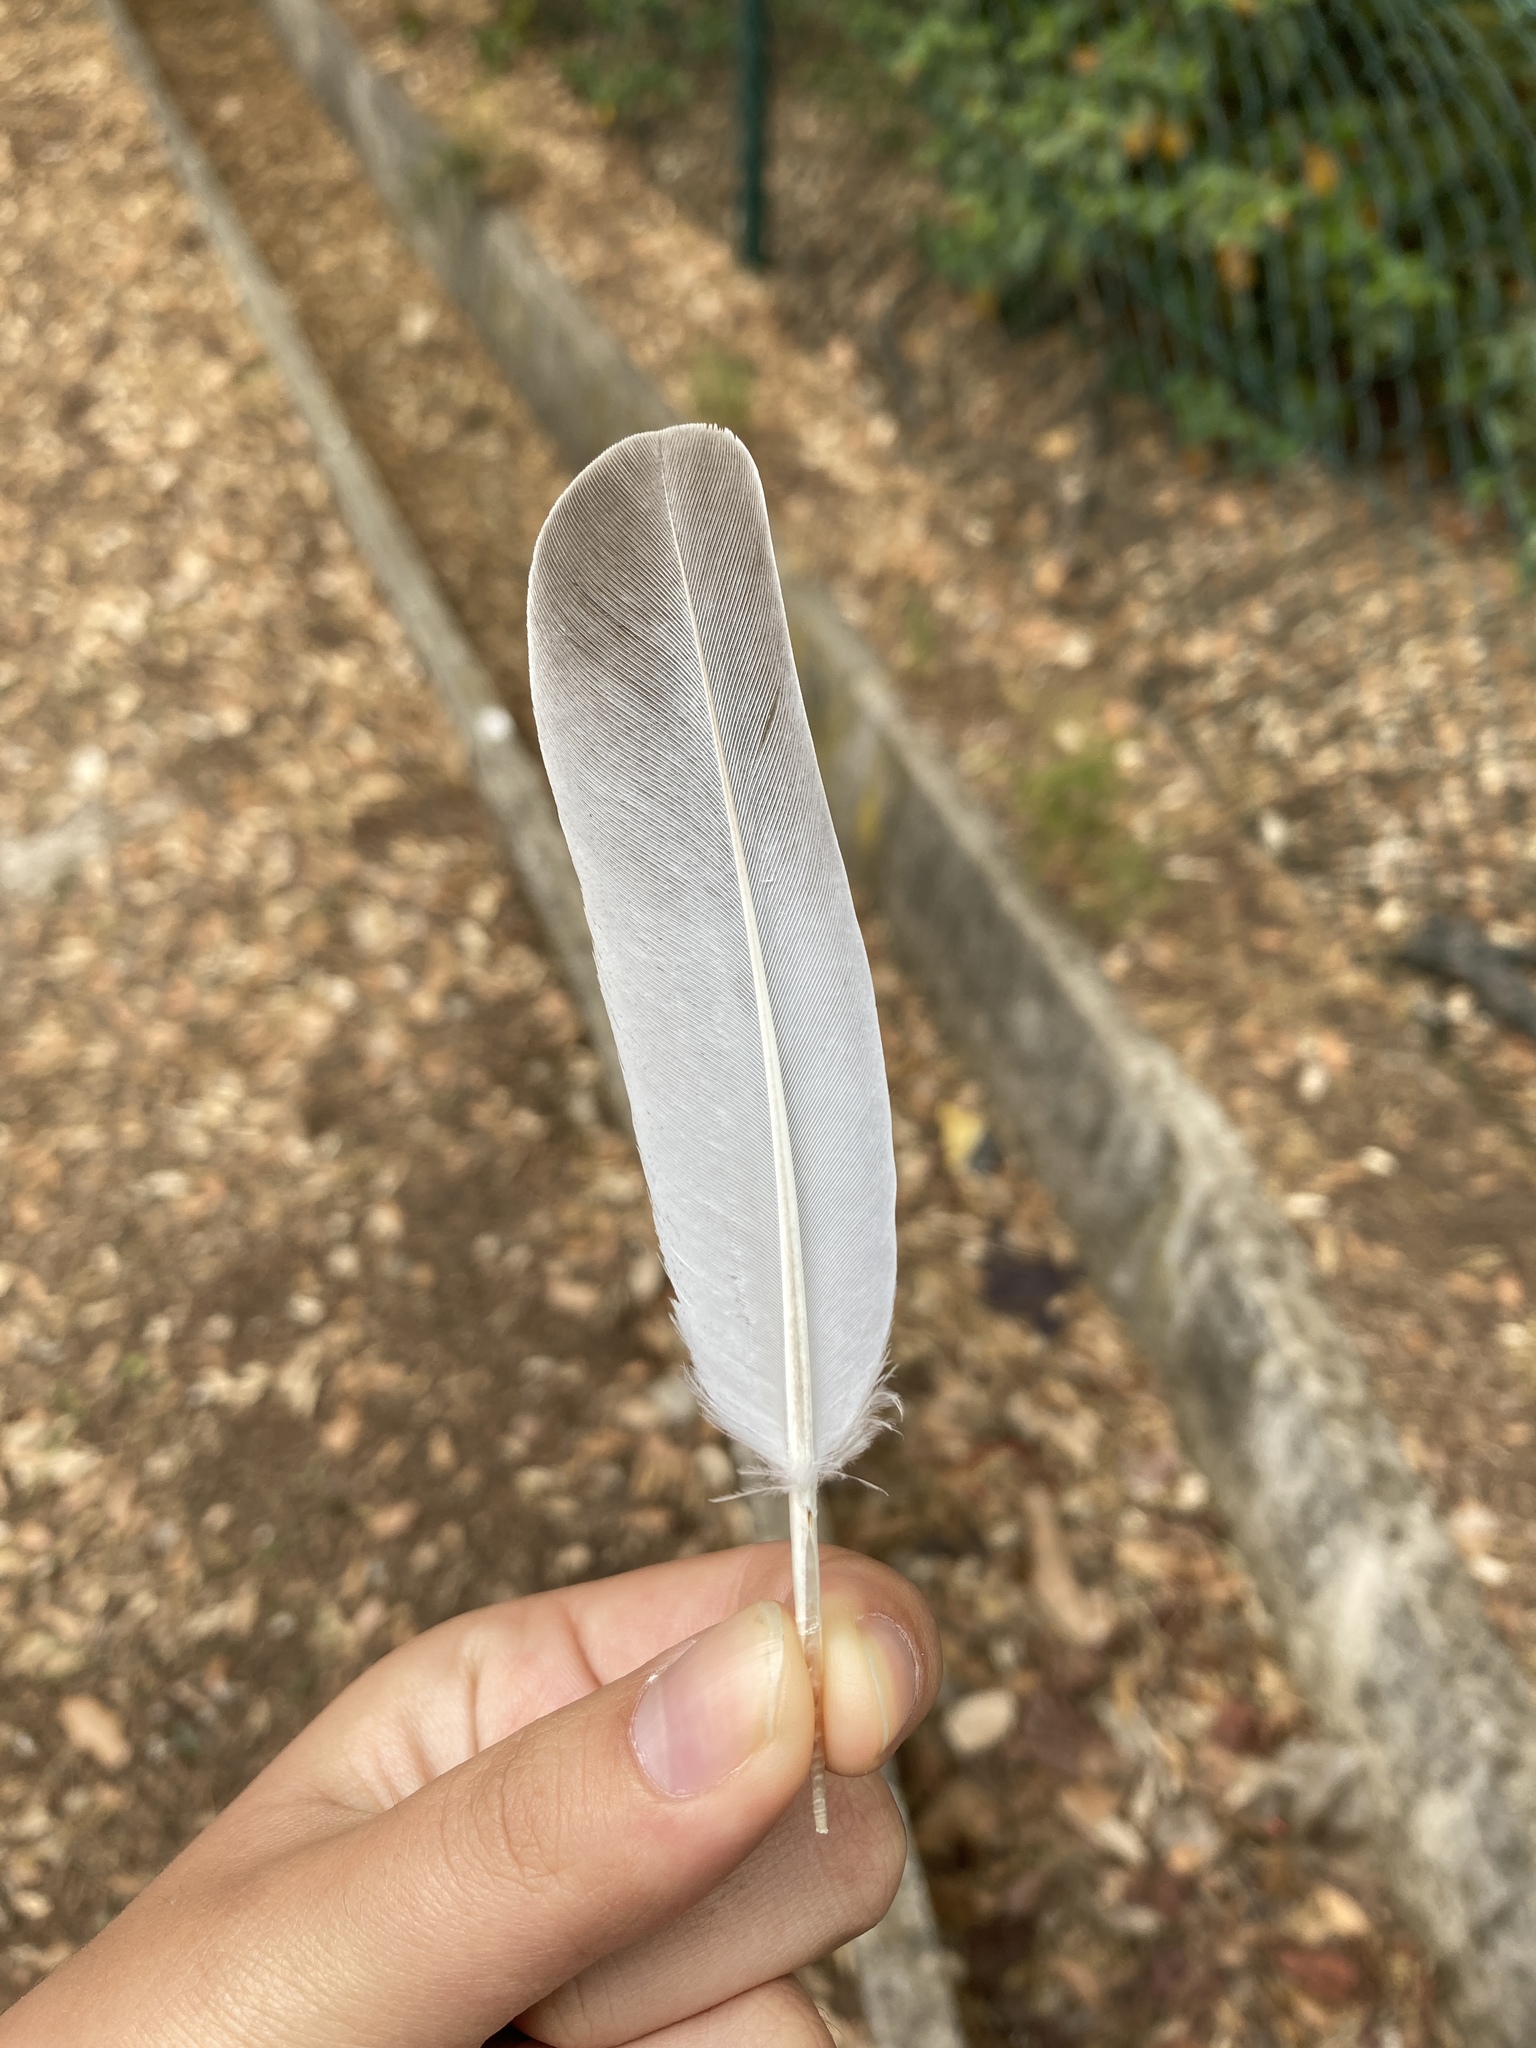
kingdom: Animalia
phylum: Chordata
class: Aves
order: Columbiformes
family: Columbidae
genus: Streptopelia
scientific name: Streptopelia decaocto
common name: Eurasian collared dove
